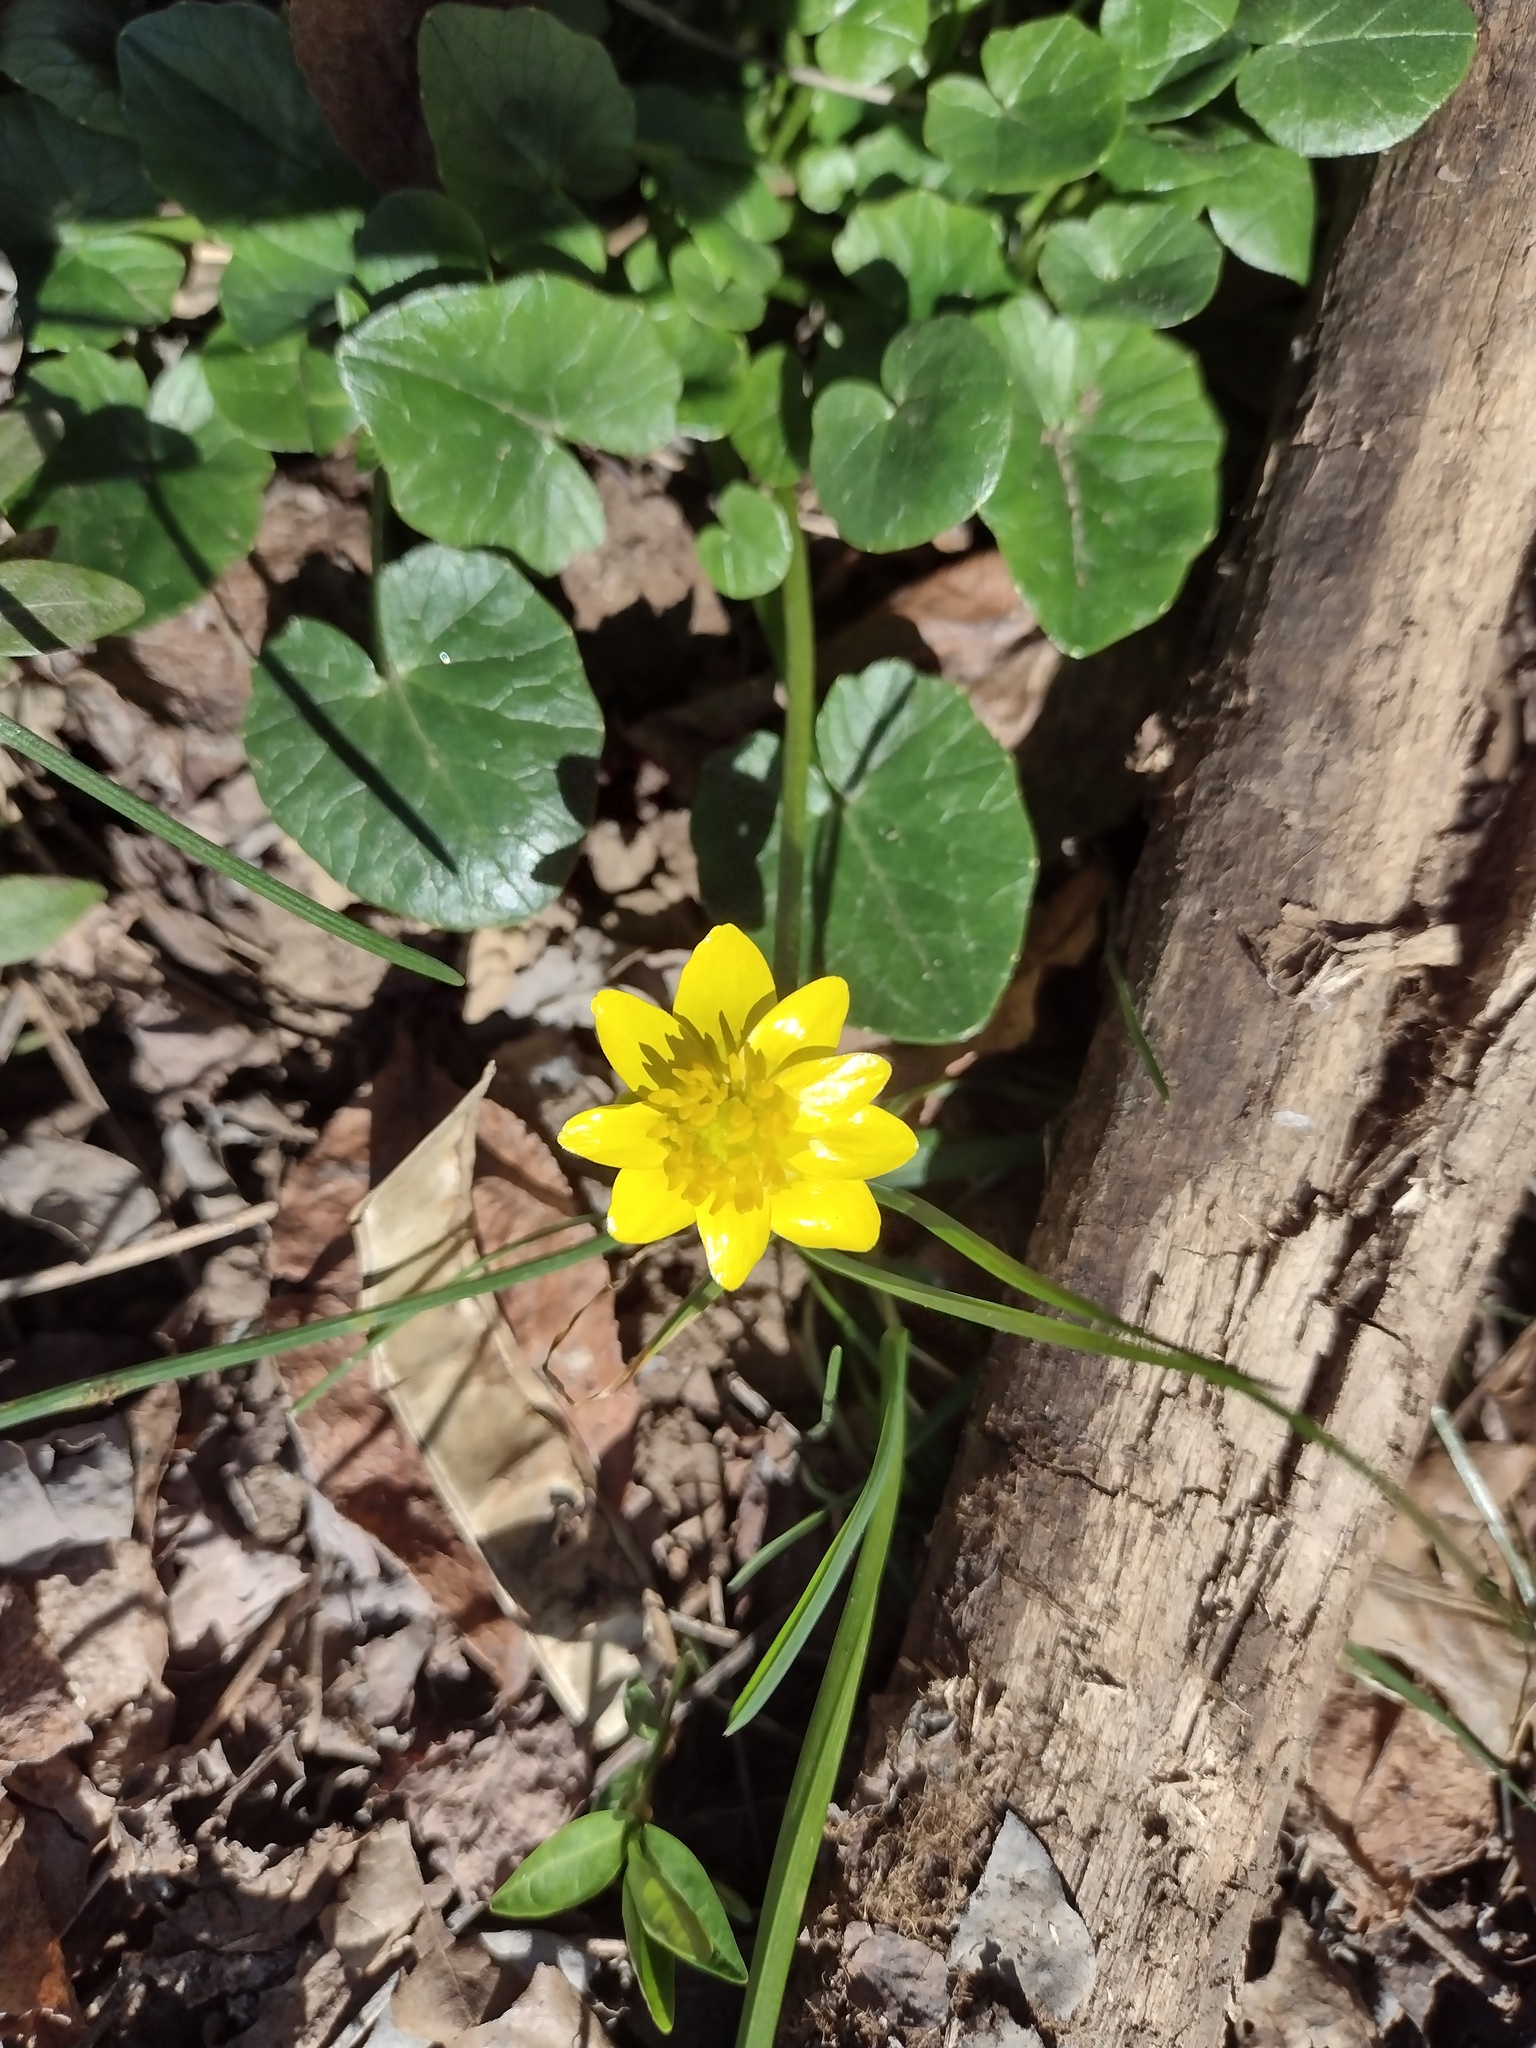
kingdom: Plantae
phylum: Tracheophyta
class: Magnoliopsida
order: Ranunculales
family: Ranunculaceae
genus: Ficaria
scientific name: Ficaria verna
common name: Lesser celandine
